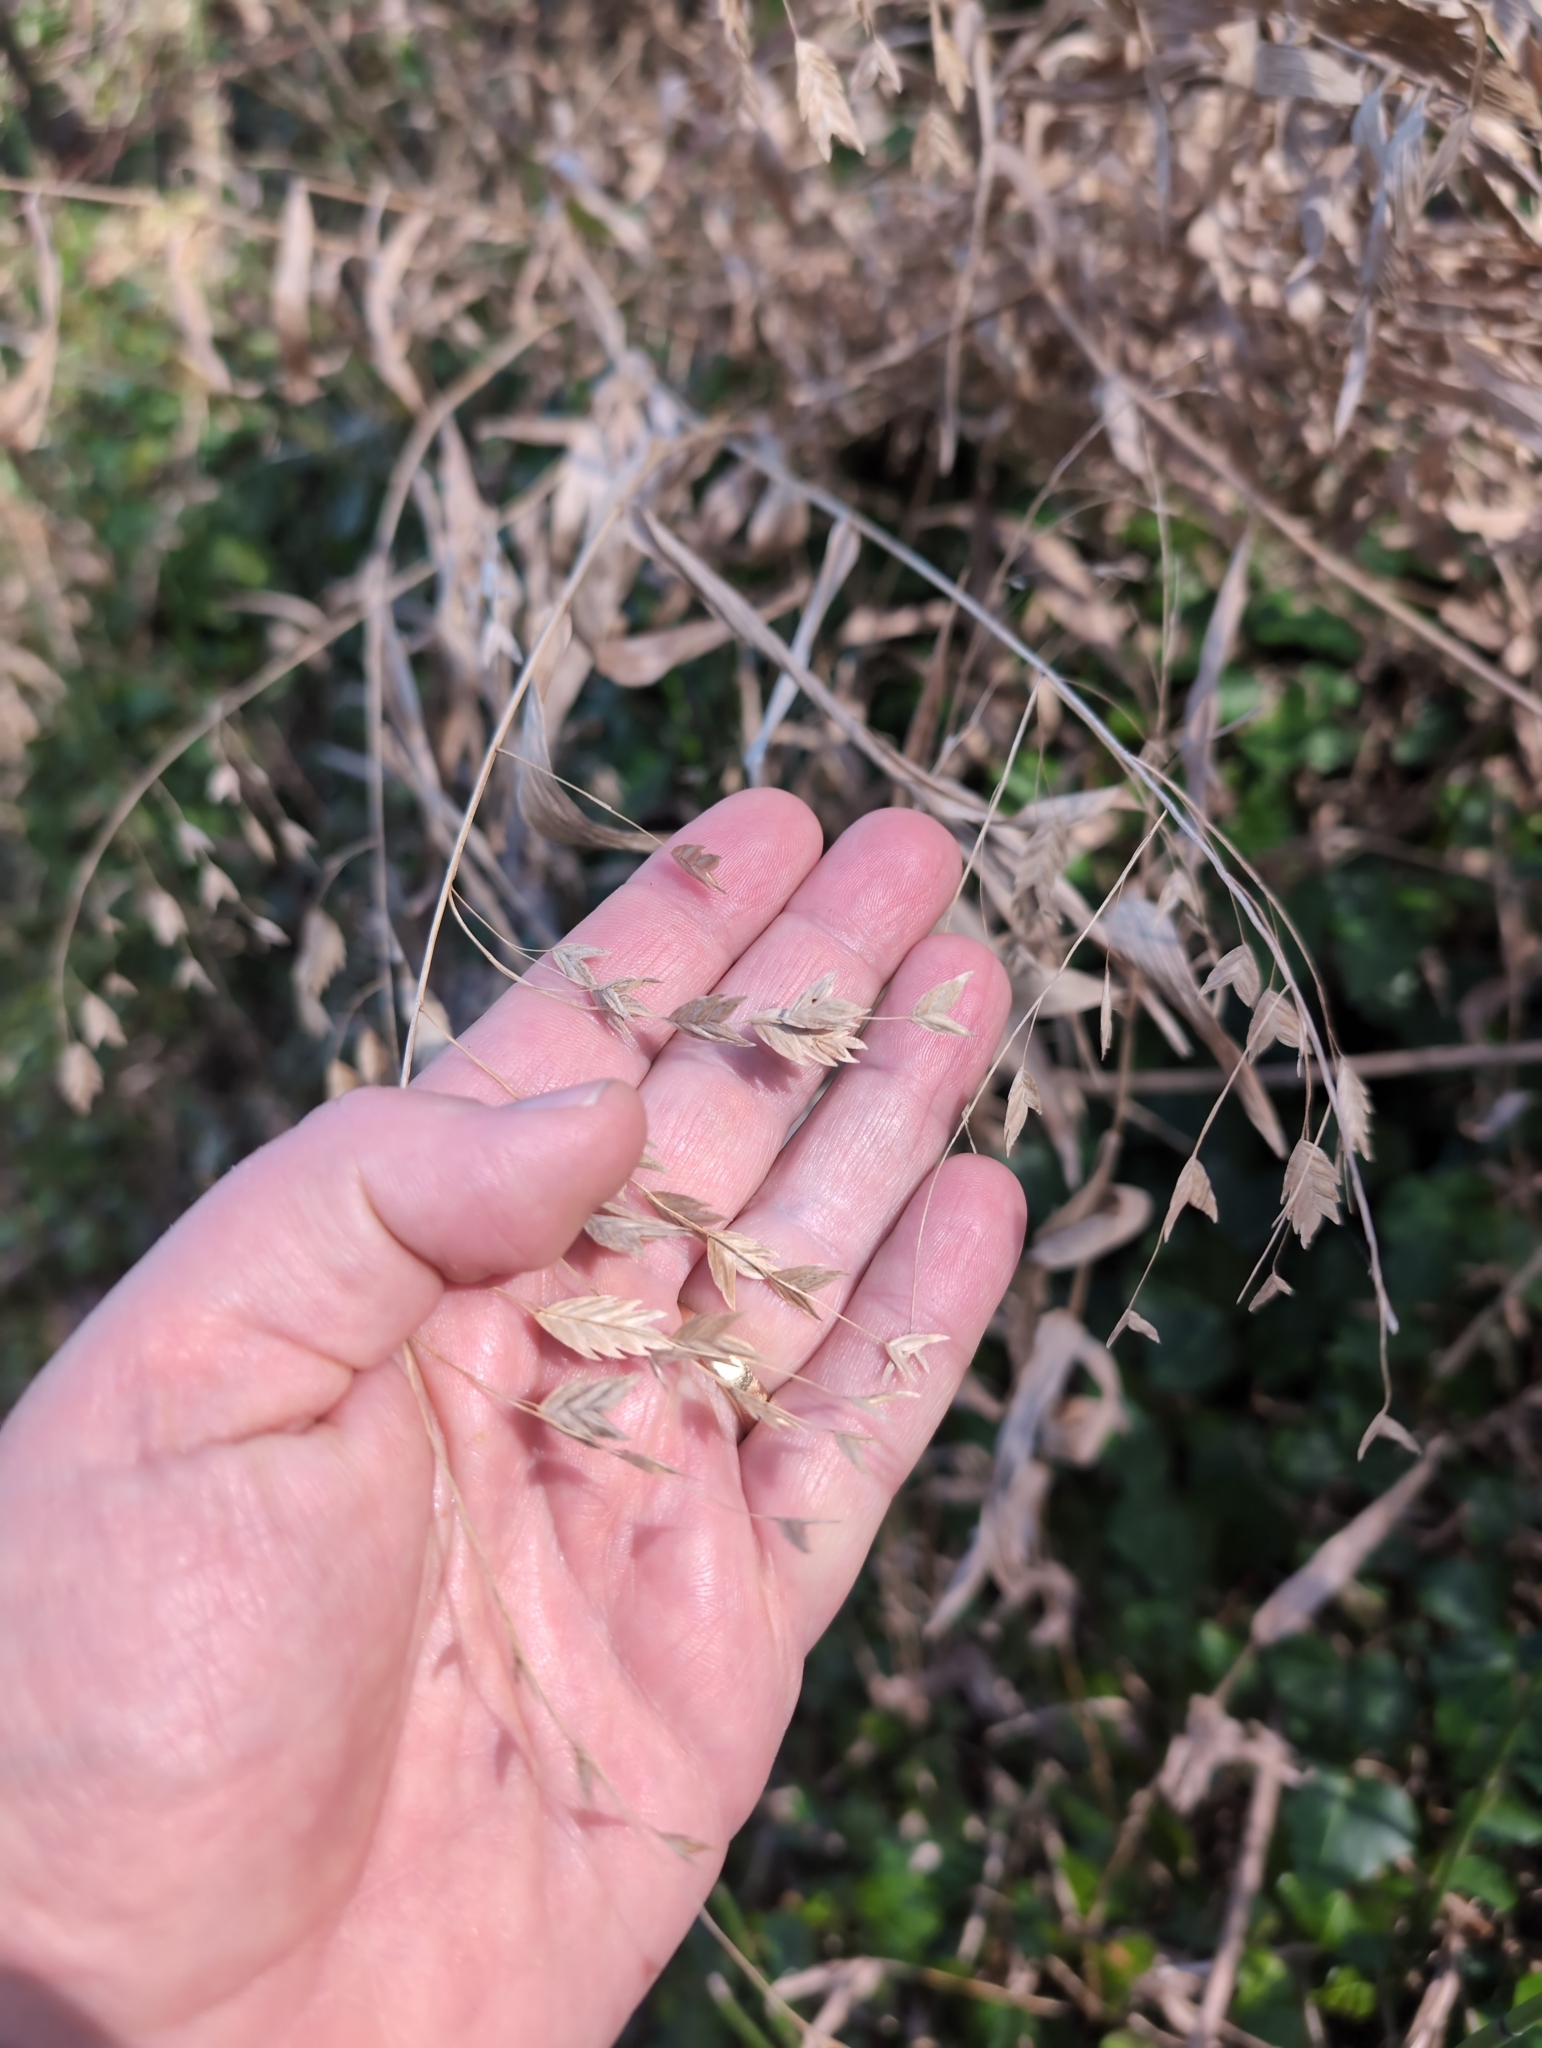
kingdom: Plantae
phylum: Tracheophyta
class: Liliopsida
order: Poales
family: Poaceae
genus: Chasmanthium
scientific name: Chasmanthium latifolium
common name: Broad-leaved chasmanthium
